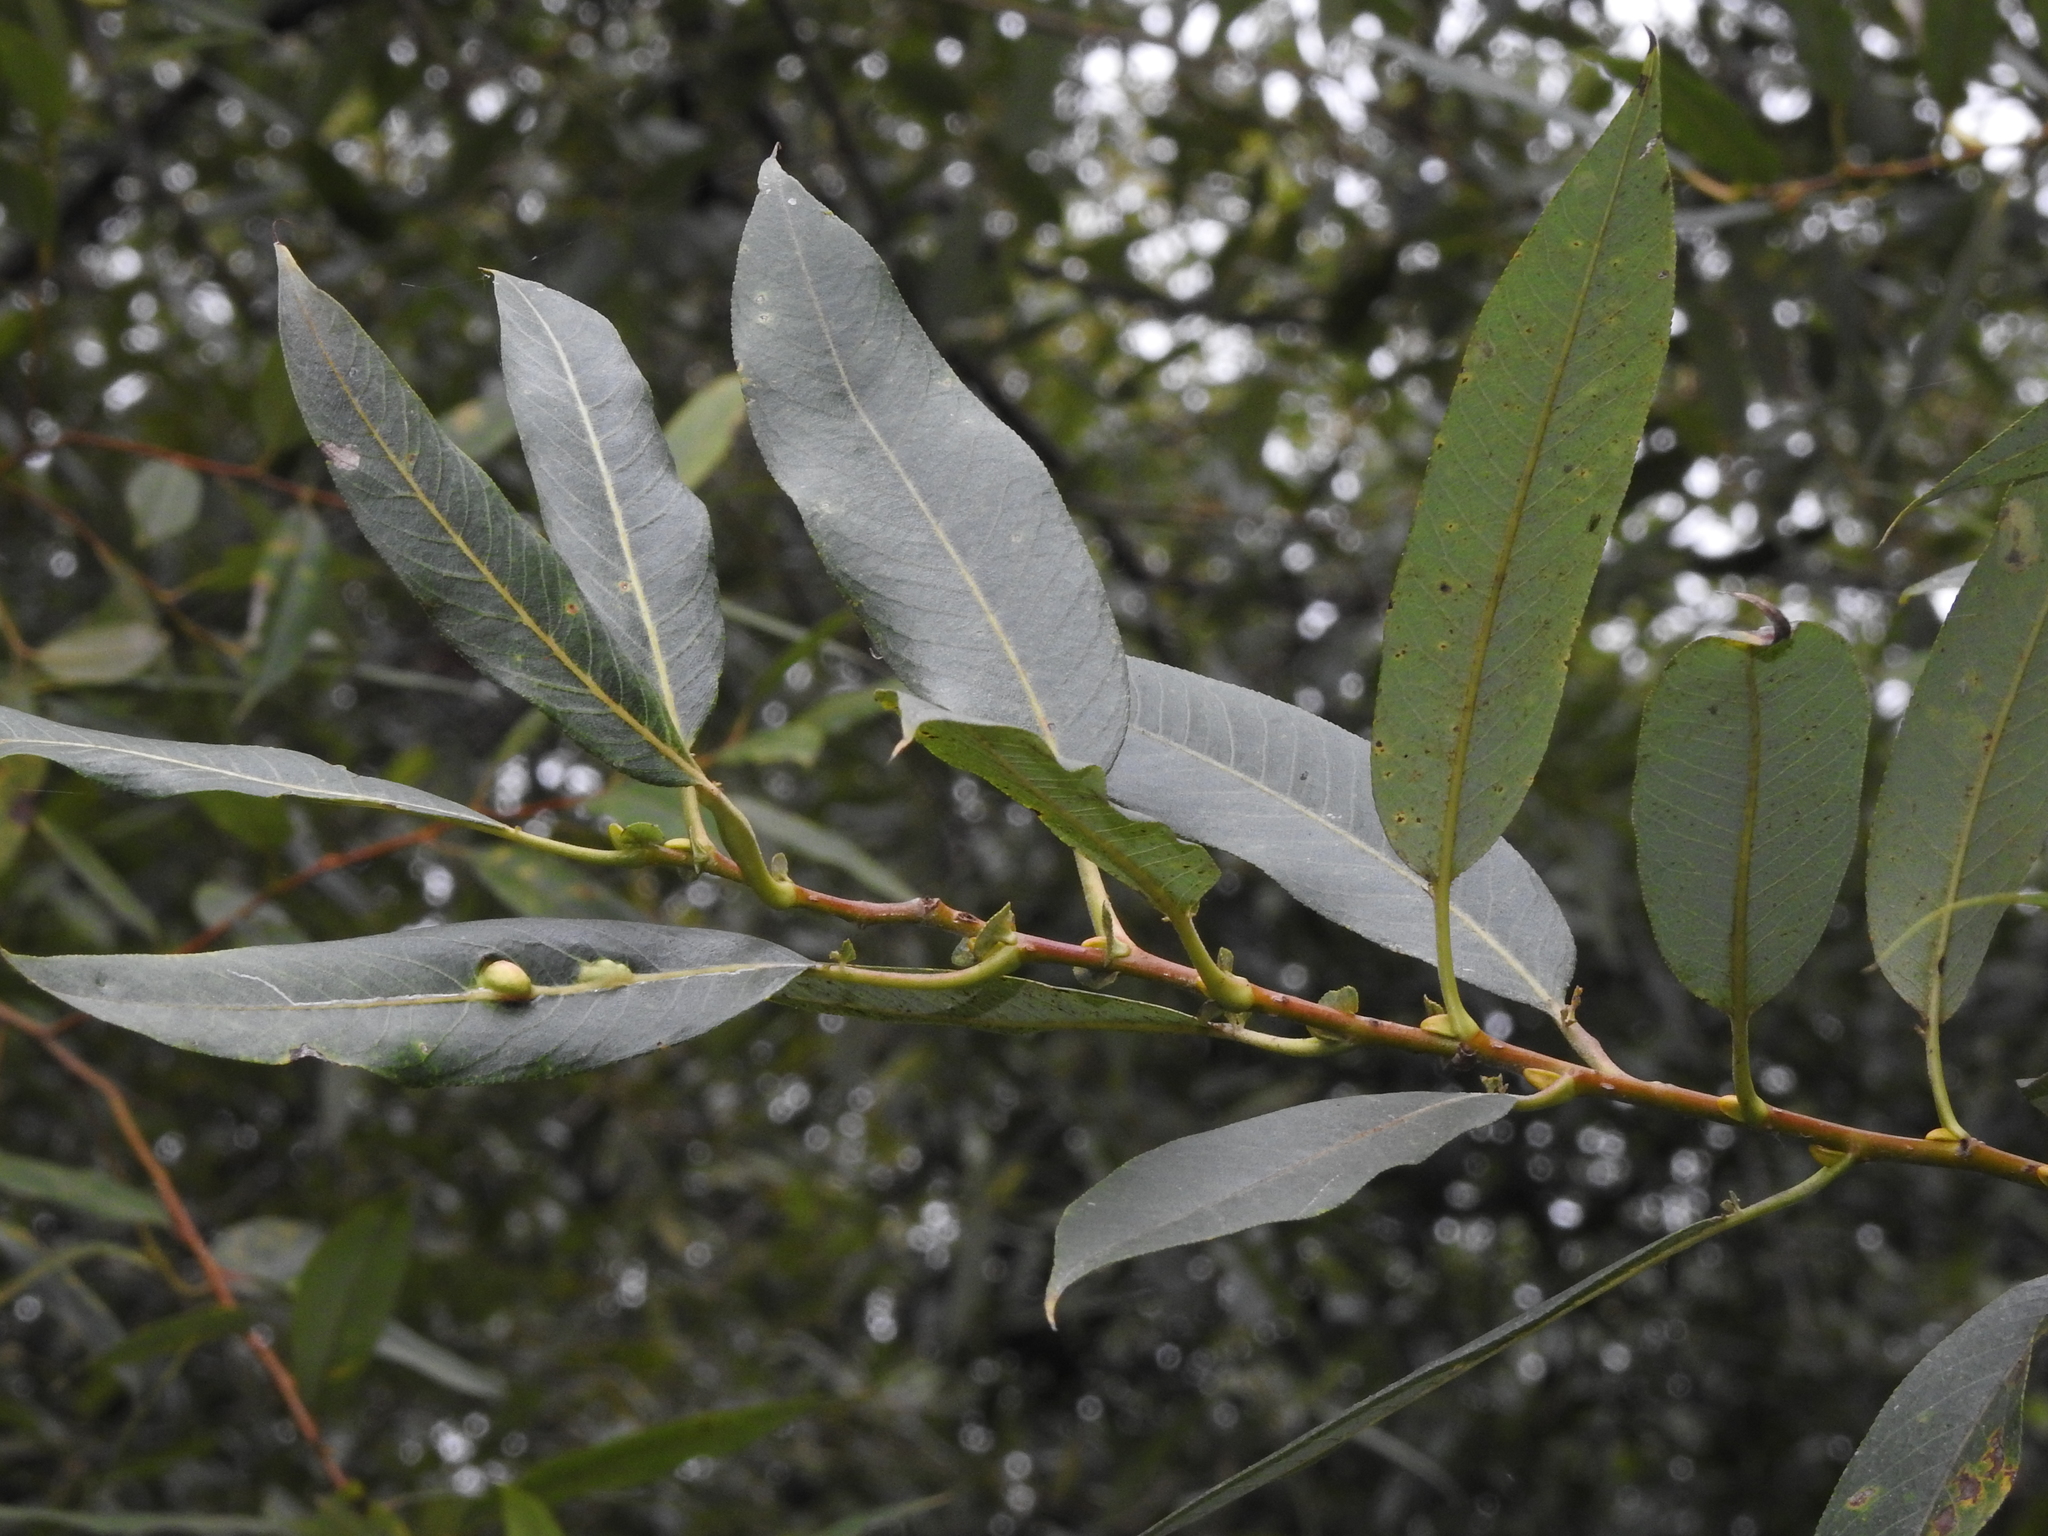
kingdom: Plantae
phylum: Tracheophyta
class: Magnoliopsida
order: Malpighiales
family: Salicaceae
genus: Salix
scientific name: Salix lucida
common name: Shining willow
